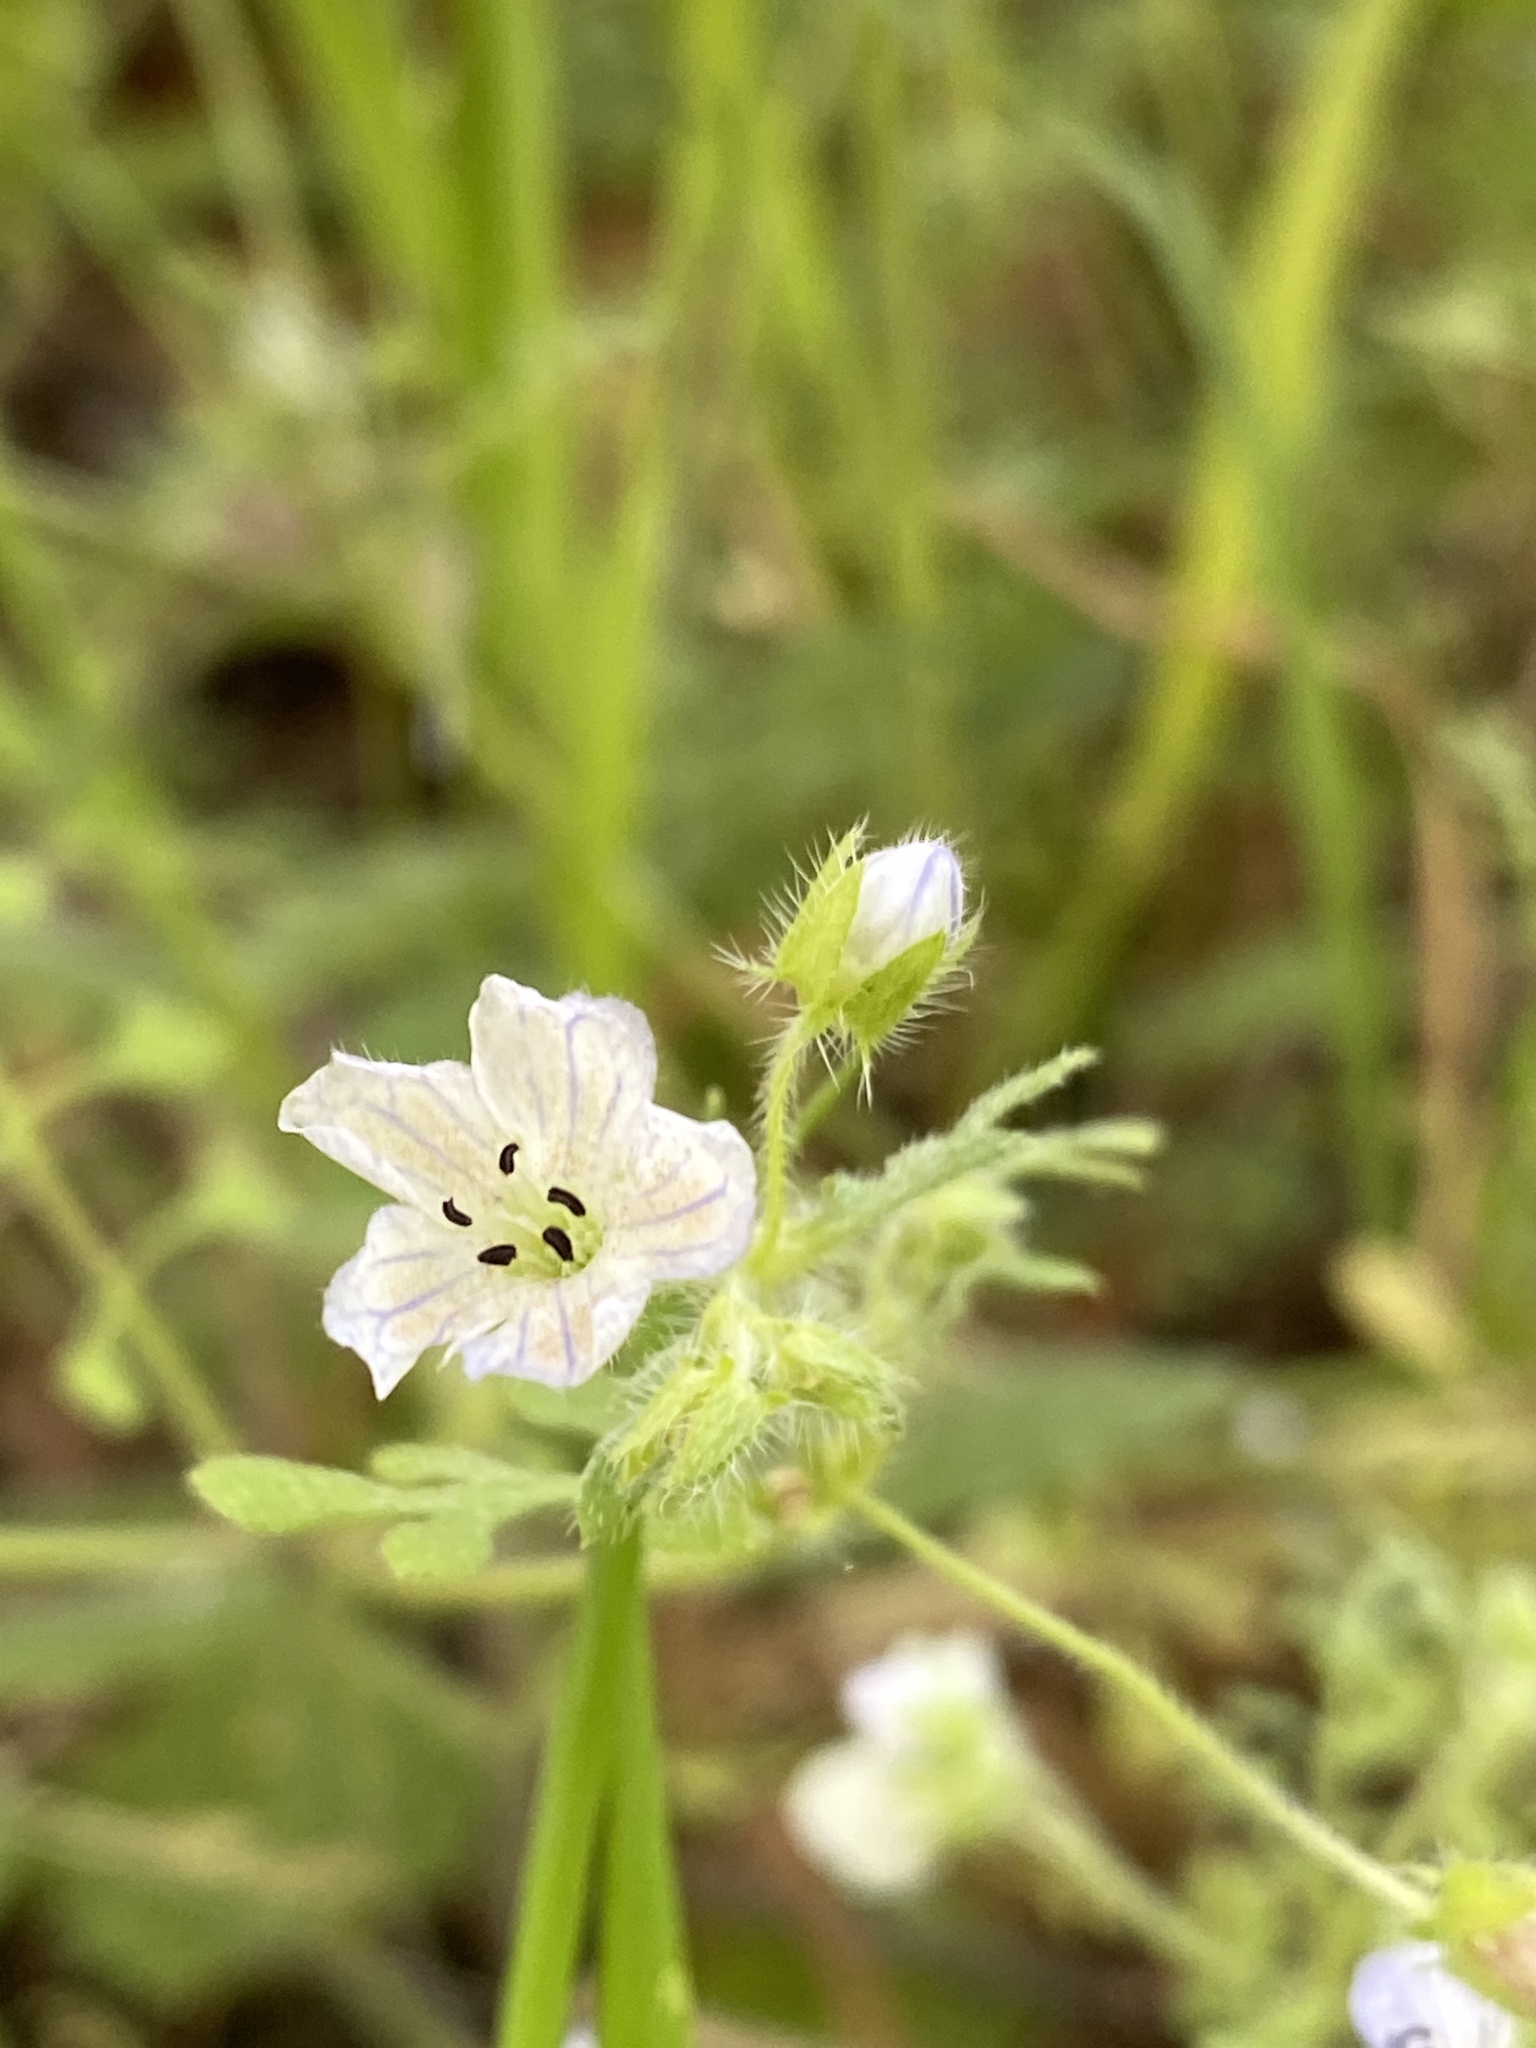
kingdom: Plantae
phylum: Tracheophyta
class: Magnoliopsida
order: Boraginales
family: Hydrophyllaceae
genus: Nemophila
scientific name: Nemophila heterophylla
